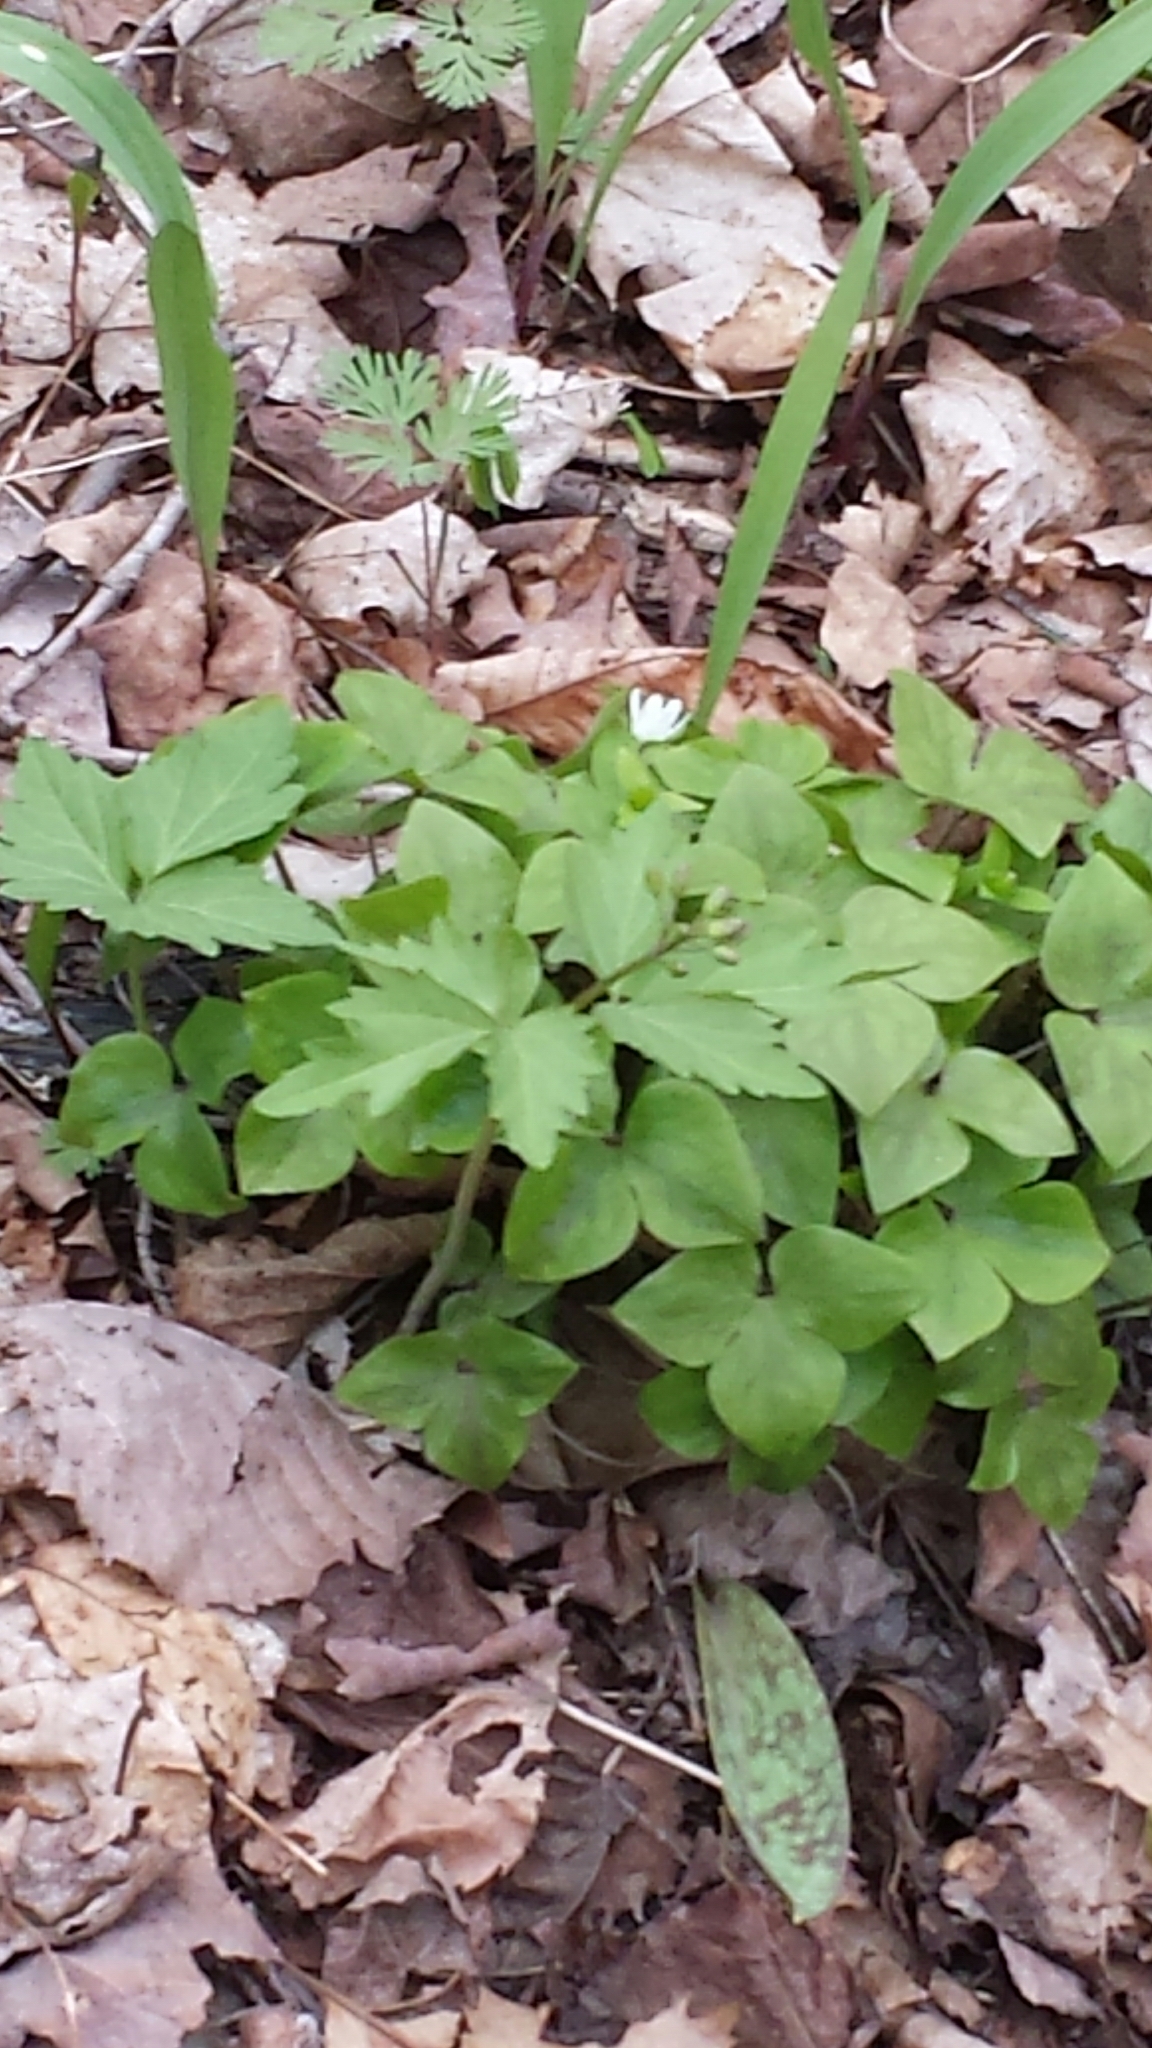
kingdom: Plantae
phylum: Tracheophyta
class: Magnoliopsida
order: Brassicales
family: Brassicaceae
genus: Cardamine
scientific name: Cardamine diphylla
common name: Broad-leaved toothwort
